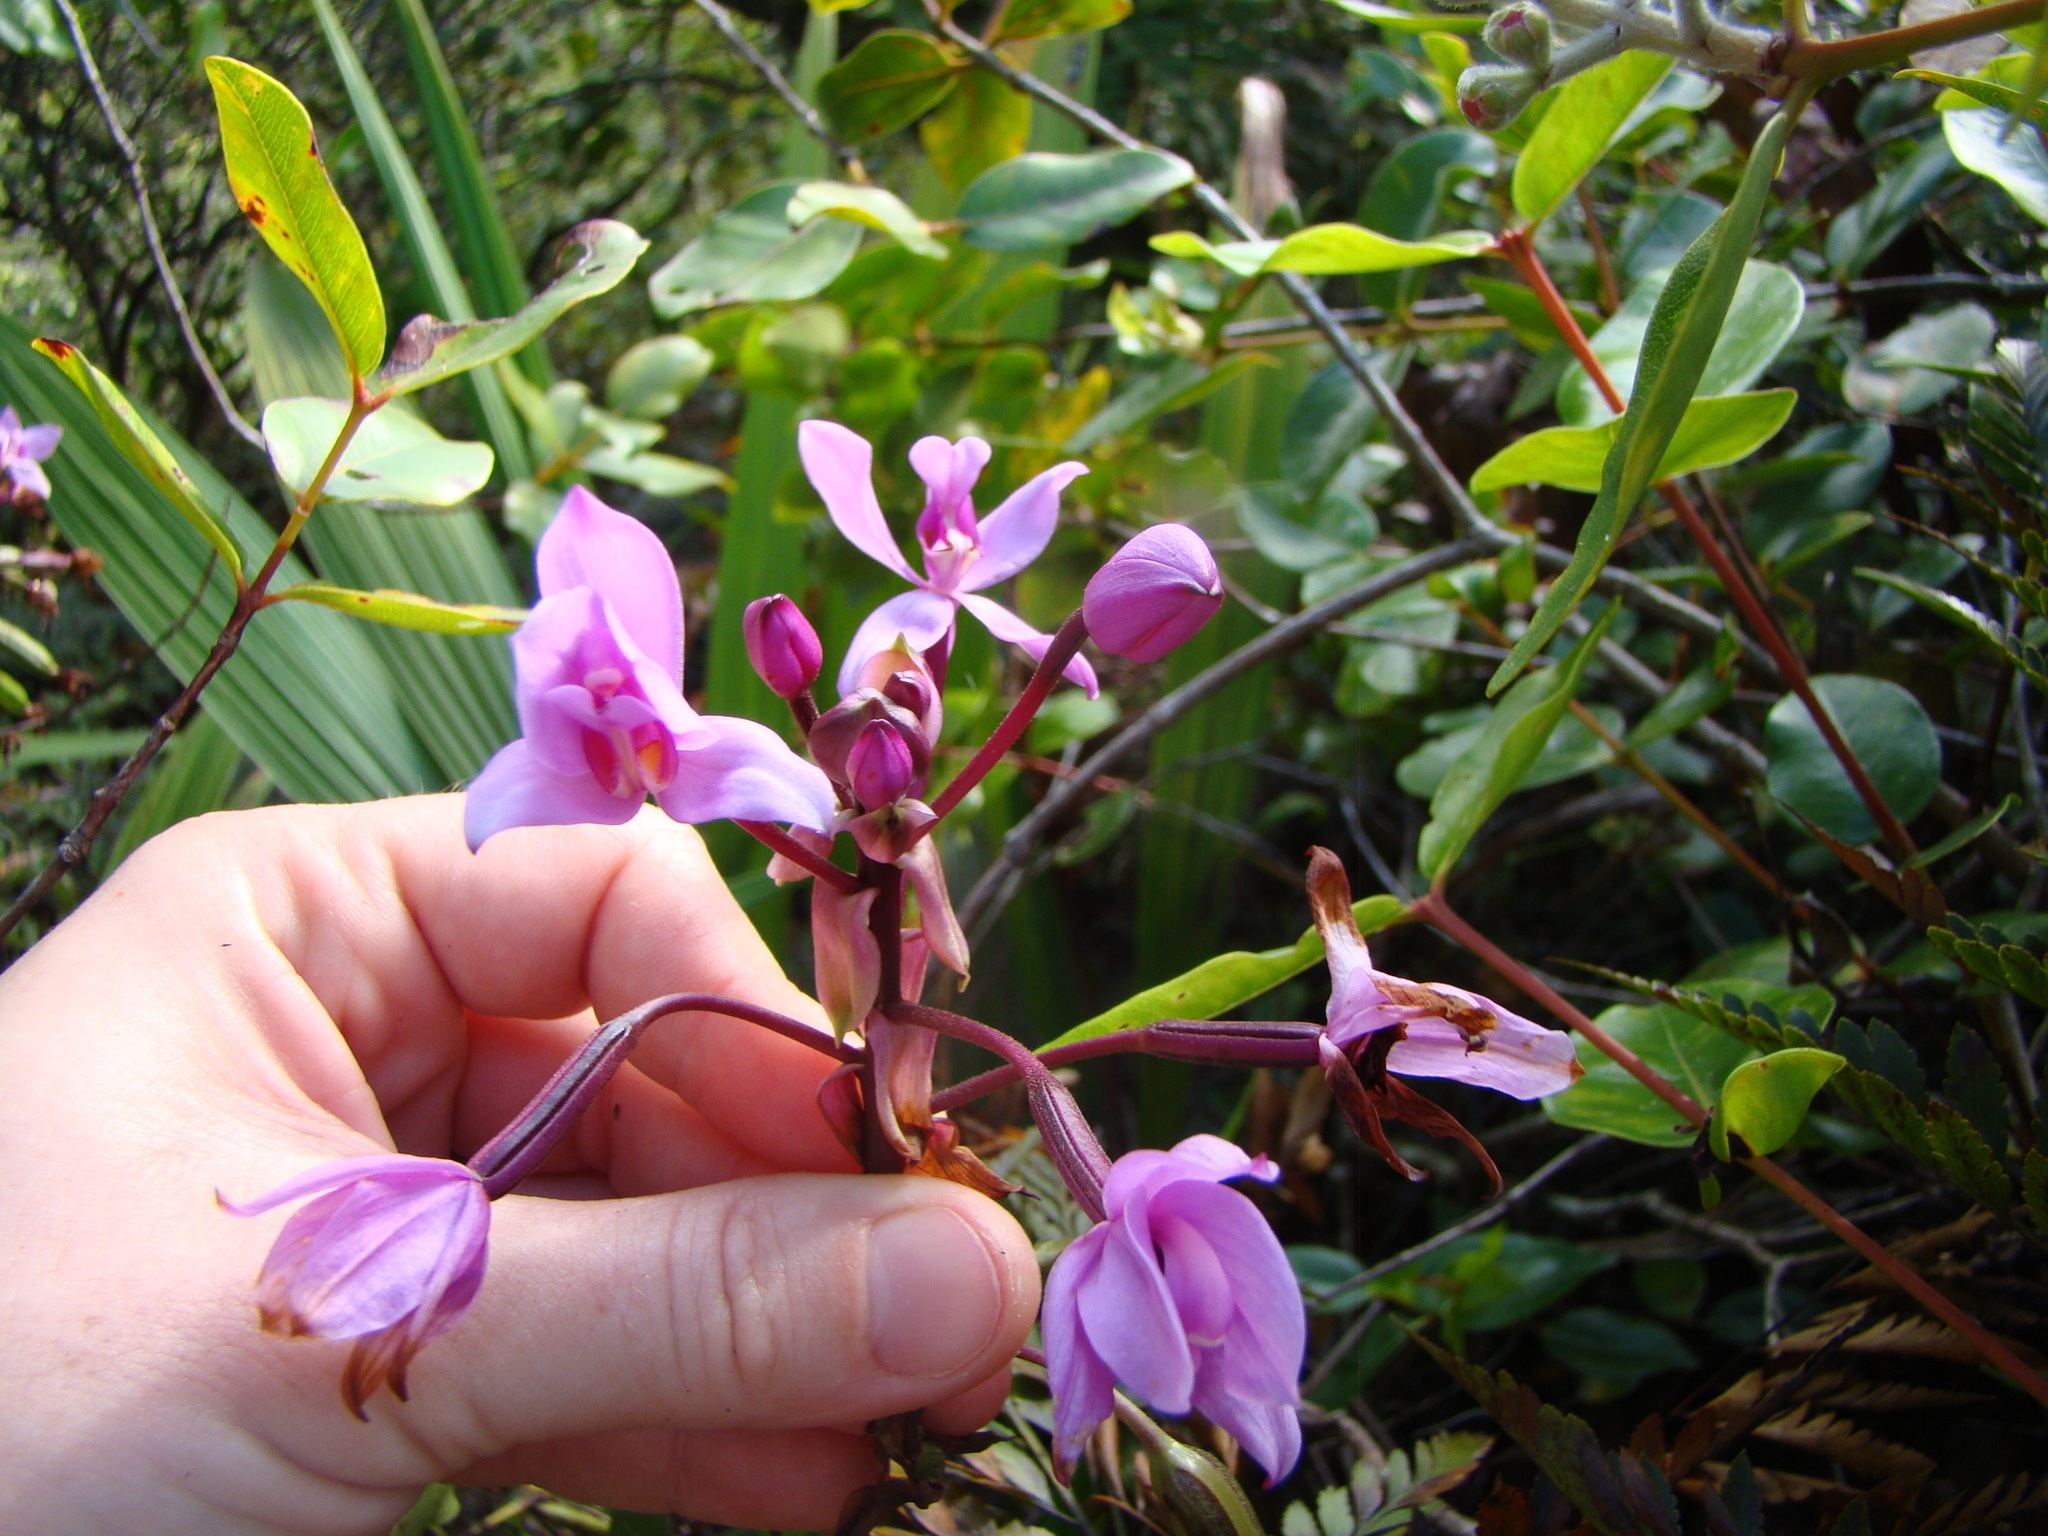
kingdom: Plantae
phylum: Tracheophyta
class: Liliopsida
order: Asparagales
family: Orchidaceae
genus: Spathoglottis
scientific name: Spathoglottis plicata
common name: Philippine ground orchid
